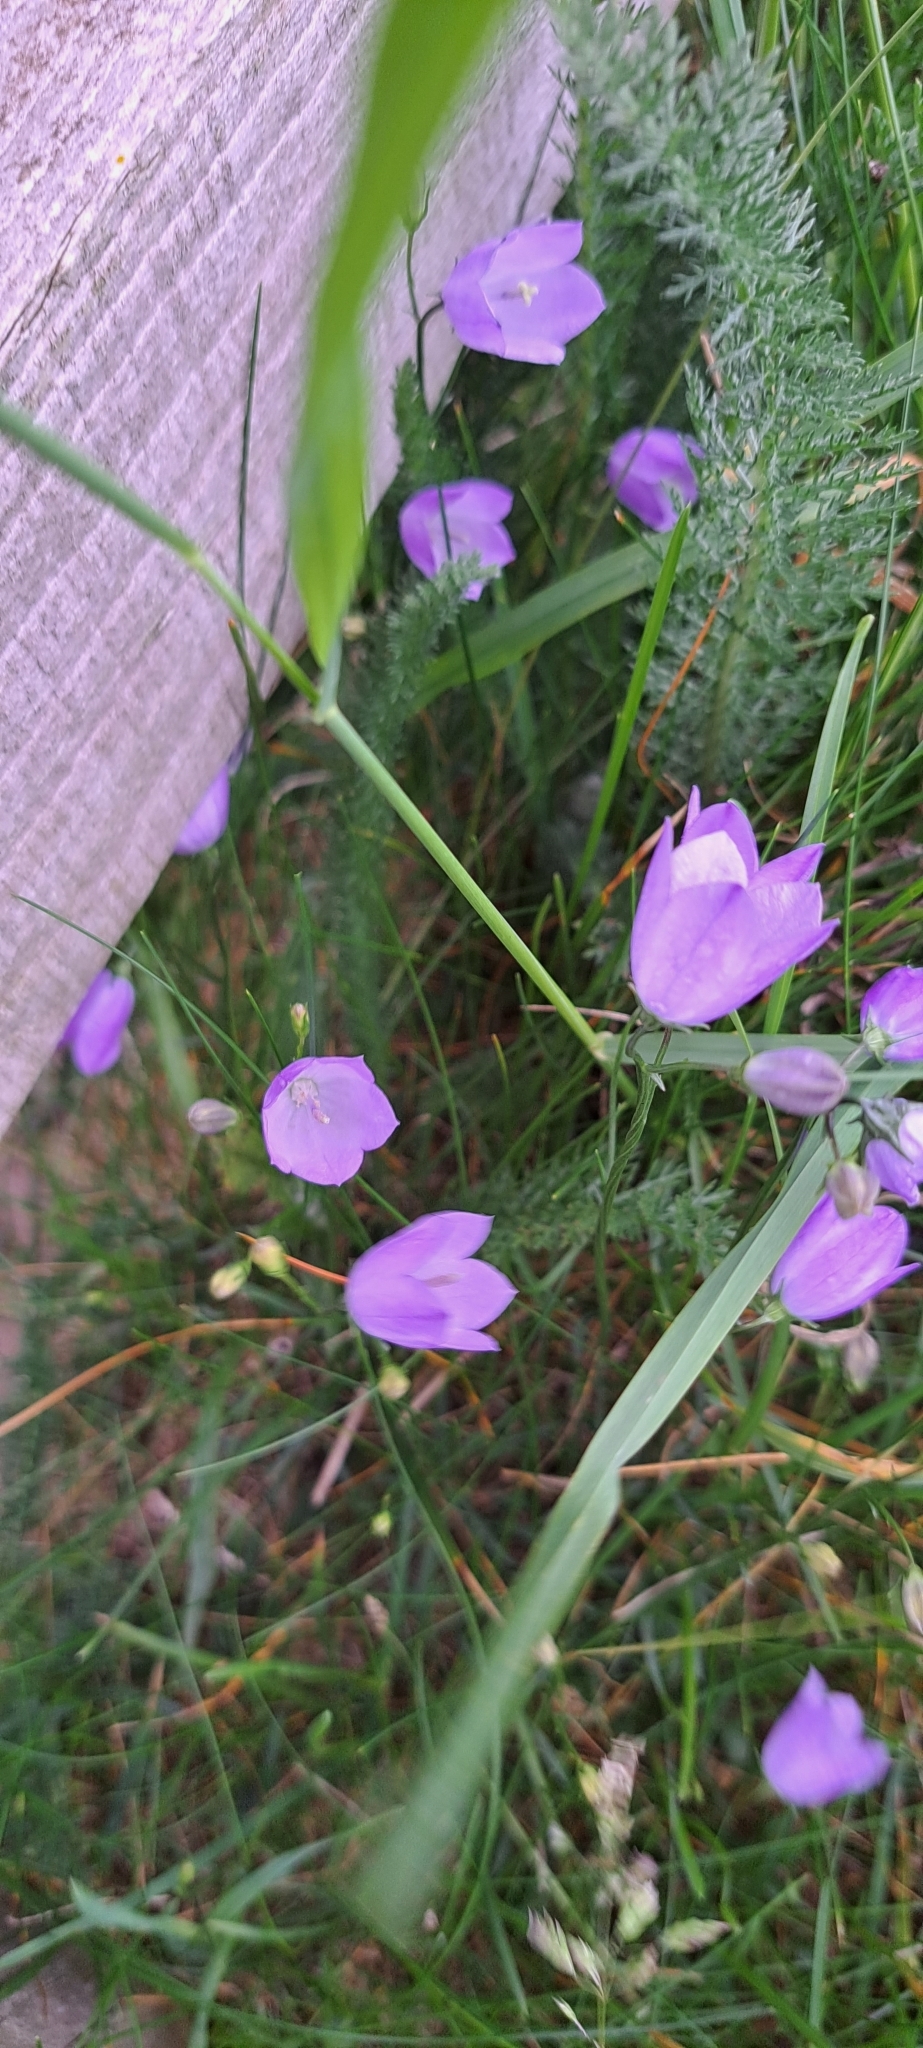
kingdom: Plantae
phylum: Tracheophyta
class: Magnoliopsida
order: Asterales
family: Campanulaceae
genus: Campanula
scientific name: Campanula rotundifolia
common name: Harebell
